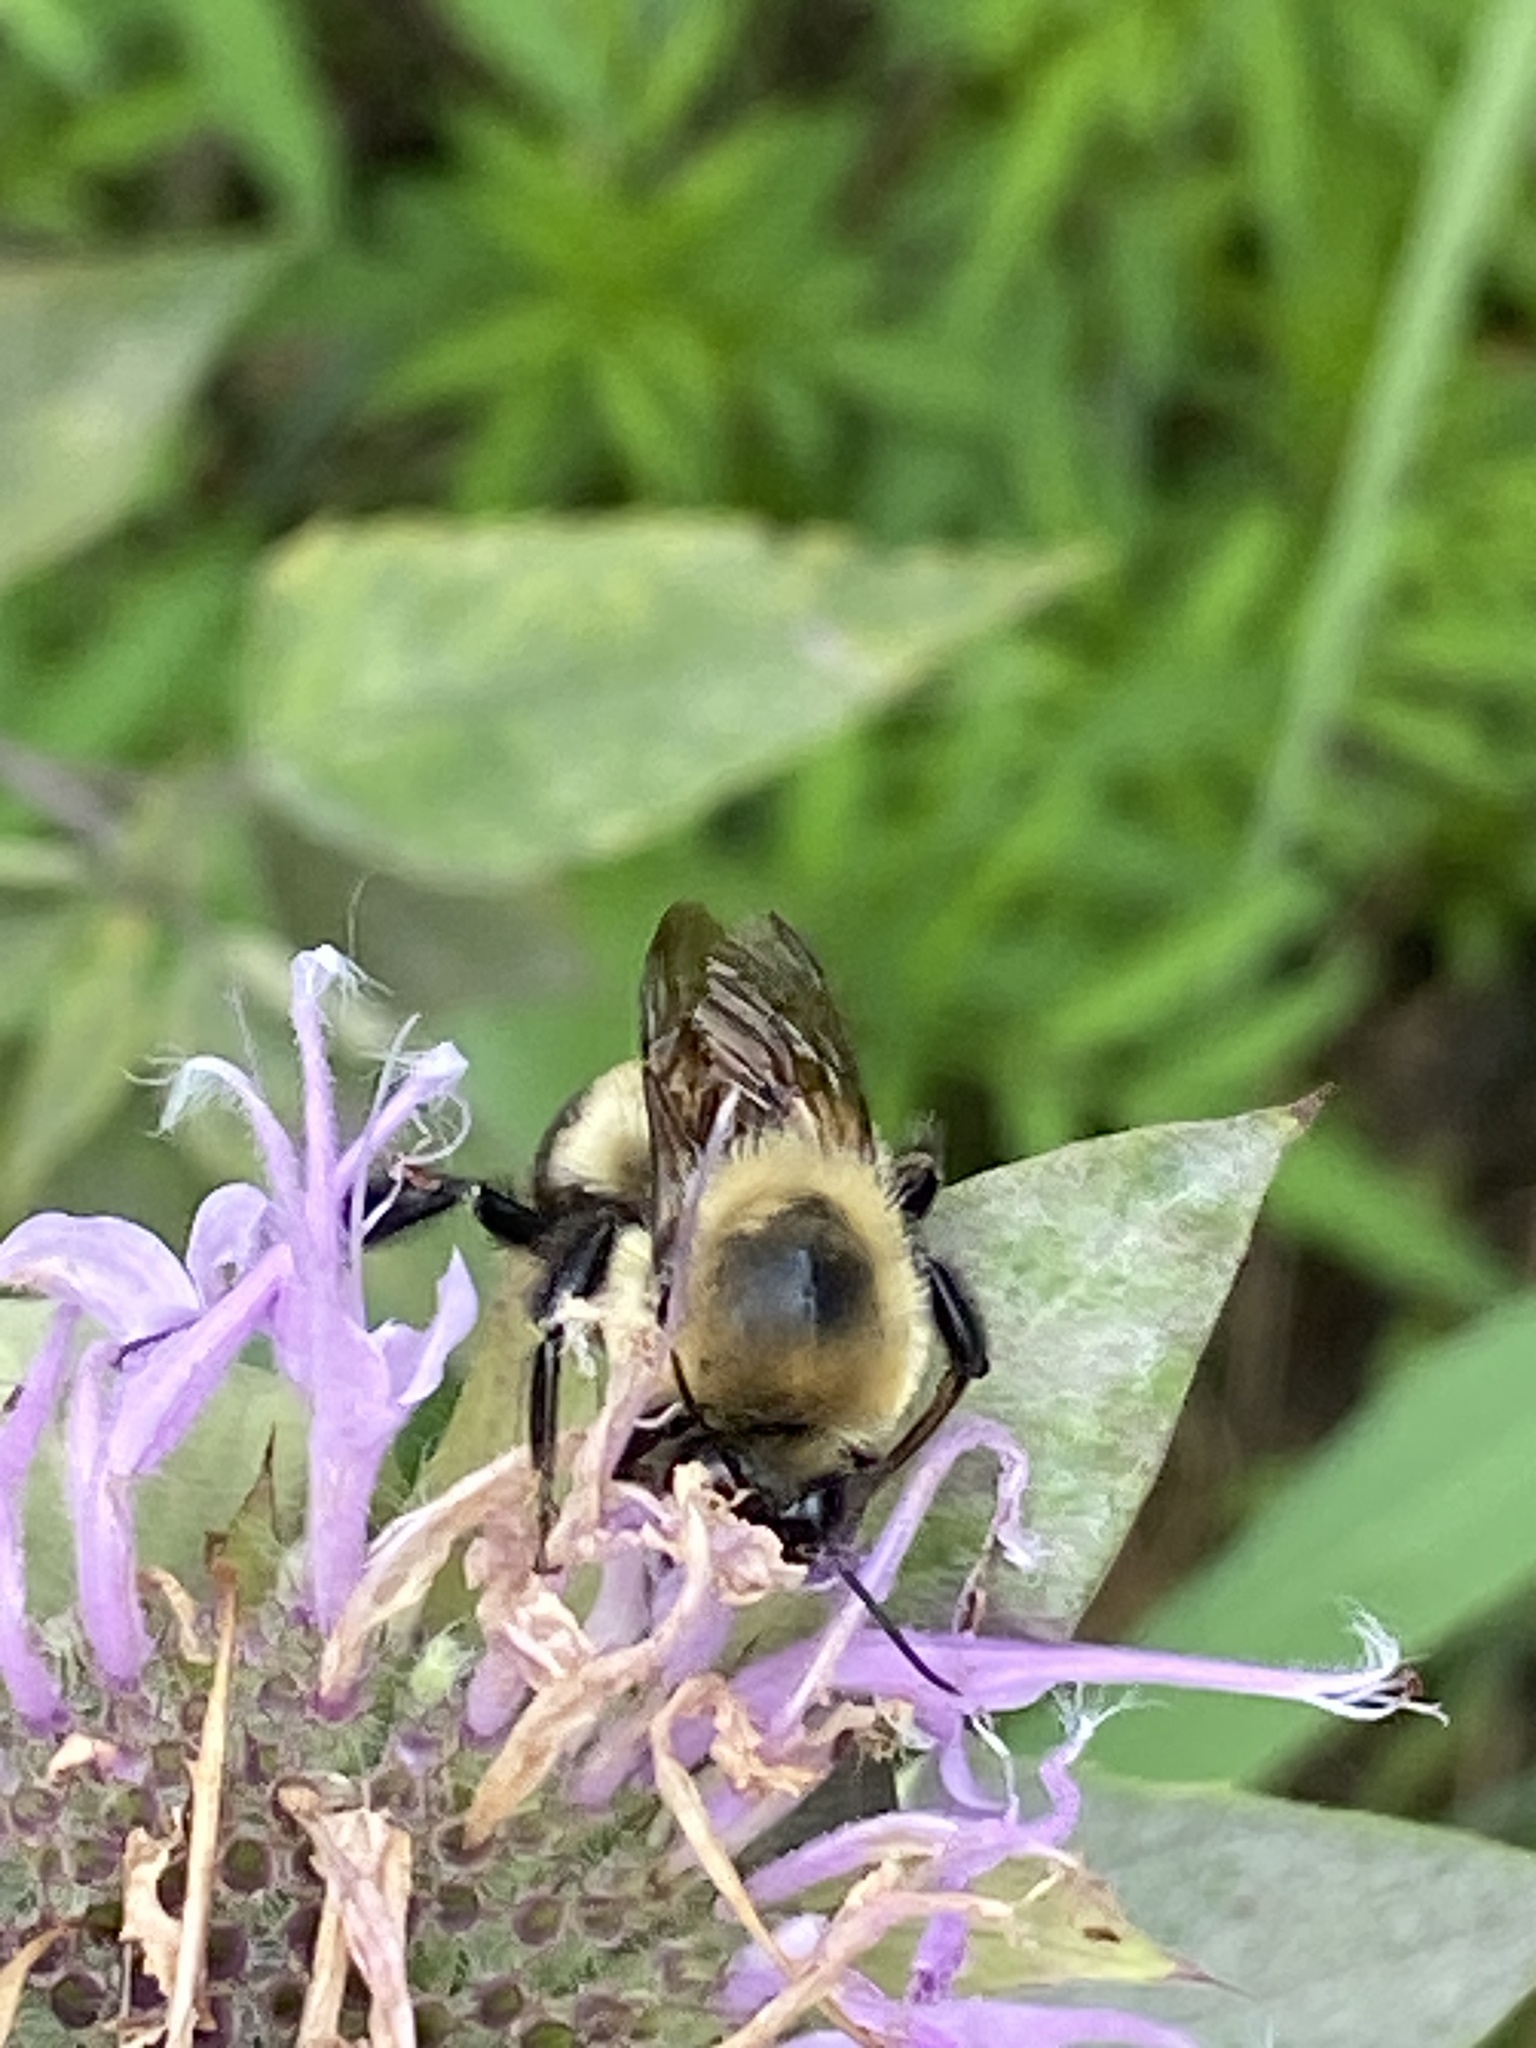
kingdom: Animalia
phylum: Arthropoda
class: Insecta
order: Hymenoptera
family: Apidae
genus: Bombus
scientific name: Bombus griseocollis
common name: Brown-belted bumble bee
